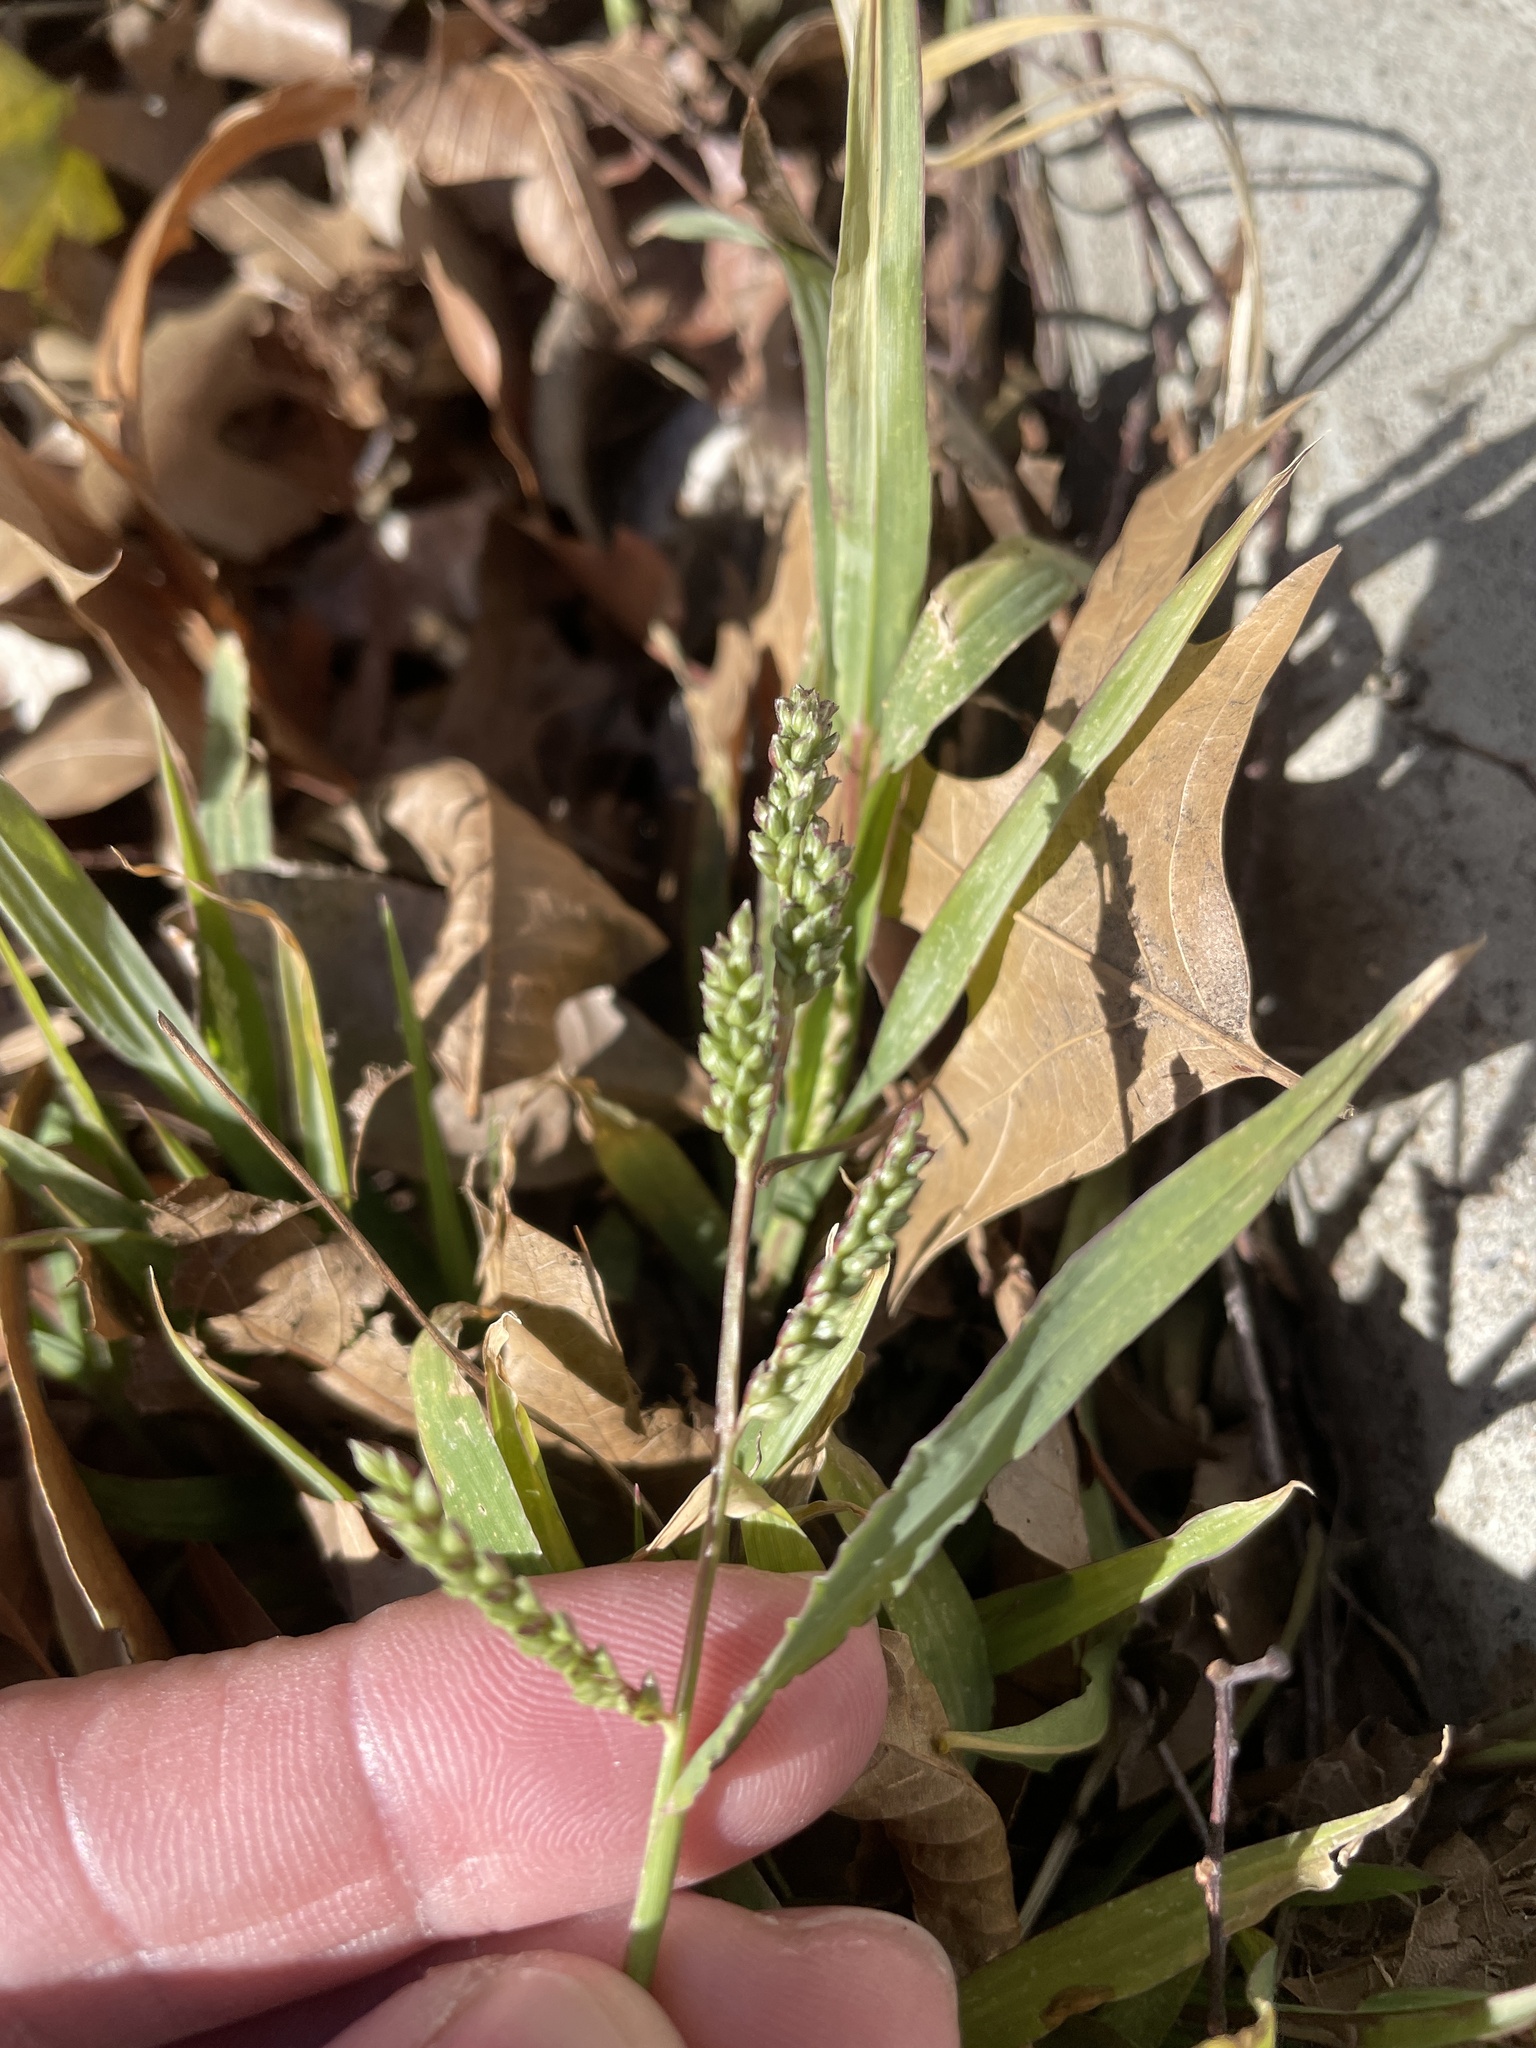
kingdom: Plantae
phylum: Tracheophyta
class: Liliopsida
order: Poales
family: Poaceae
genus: Echinochloa
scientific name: Echinochloa colonum
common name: Jungle rice
